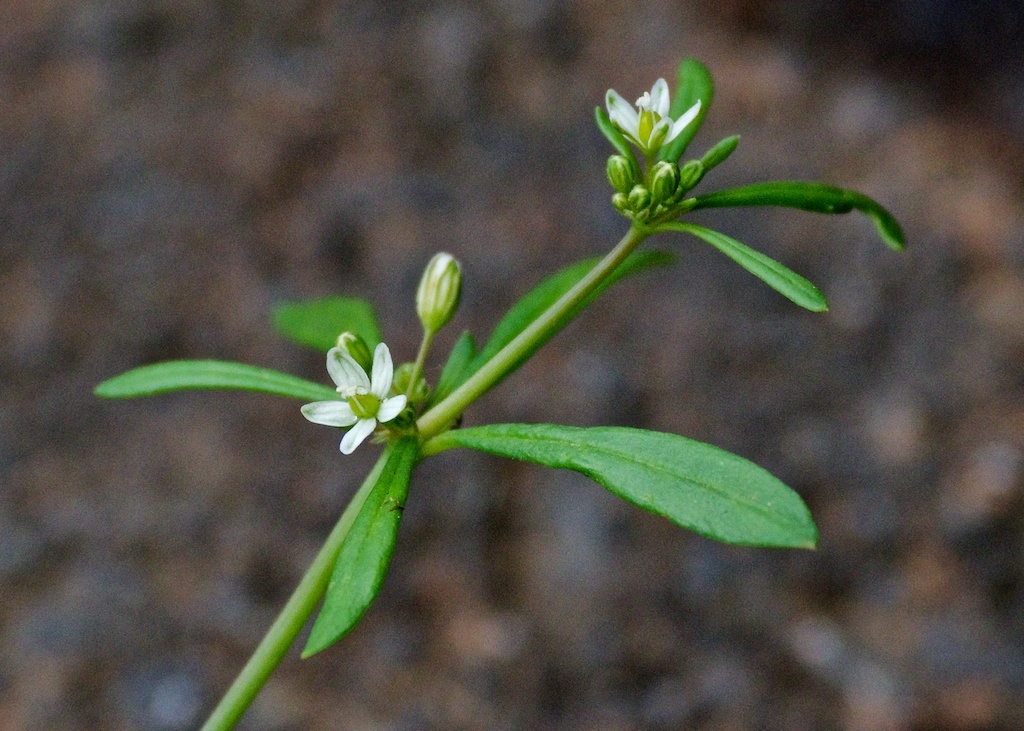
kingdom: Plantae
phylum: Tracheophyta
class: Magnoliopsida
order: Caryophyllales
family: Molluginaceae
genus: Mollugo
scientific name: Mollugo verticillata
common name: Green carpetweed
